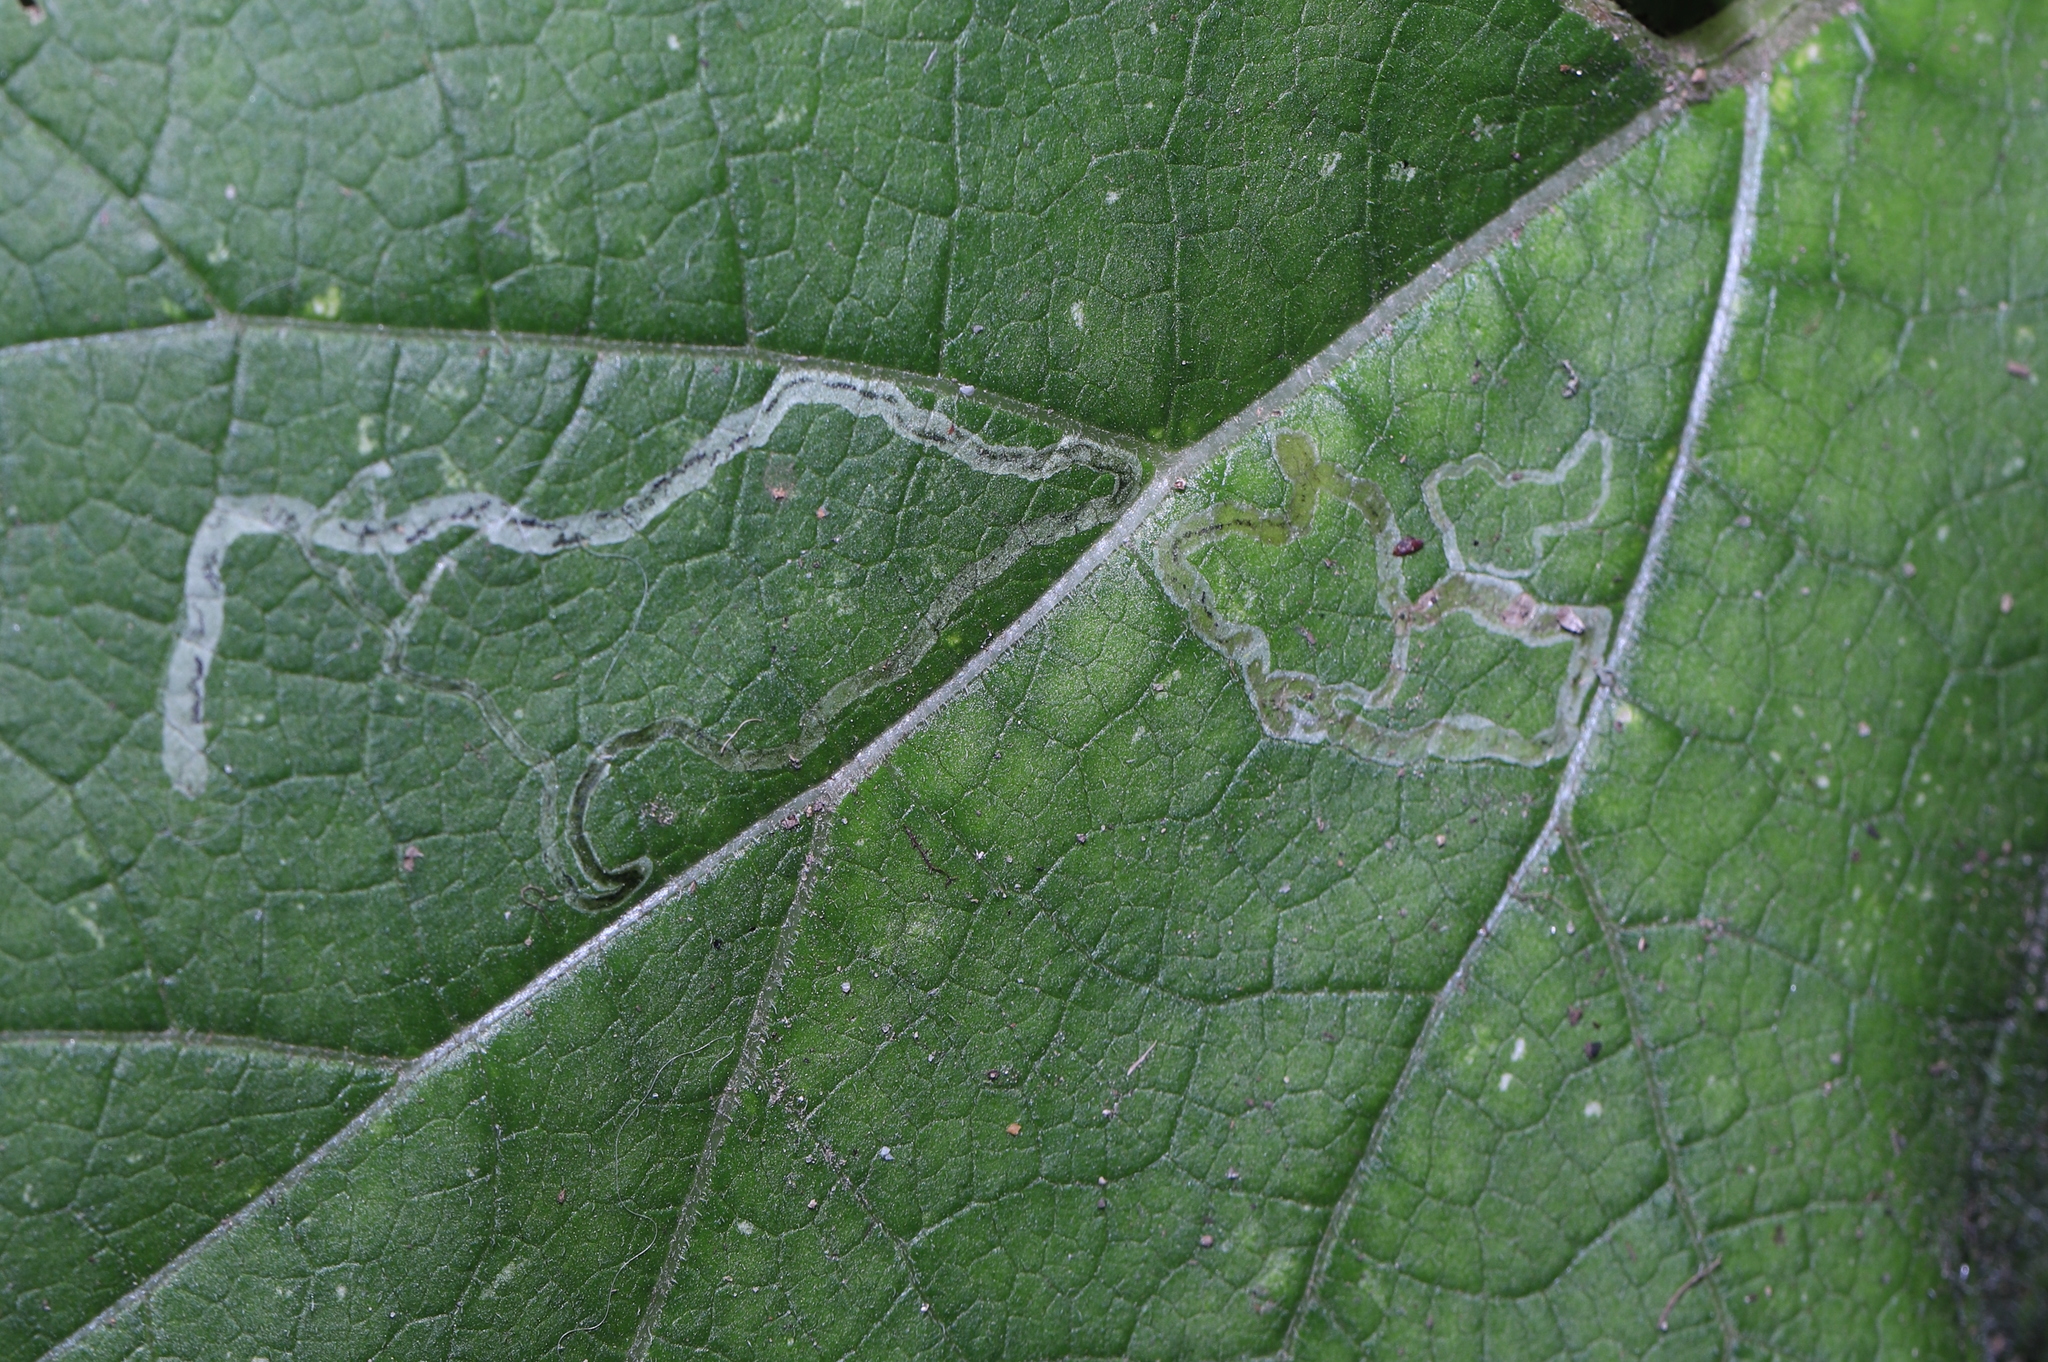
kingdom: Animalia
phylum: Arthropoda
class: Insecta
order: Diptera
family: Agromyzidae
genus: Liriomyza
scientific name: Liriomyza arctii
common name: Burdock leafminer
